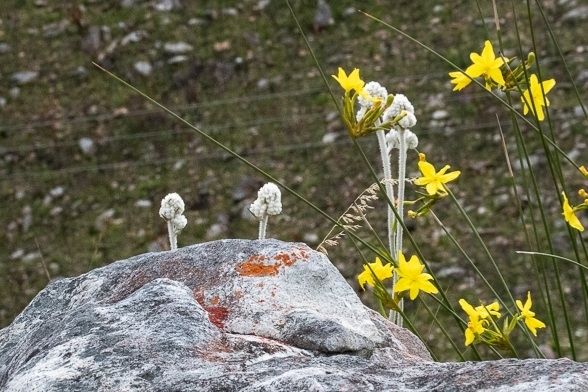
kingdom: Plantae
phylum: Tracheophyta
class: Liliopsida
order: Asparagales
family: Lanariaceae
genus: Lanaria
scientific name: Lanaria lanata
